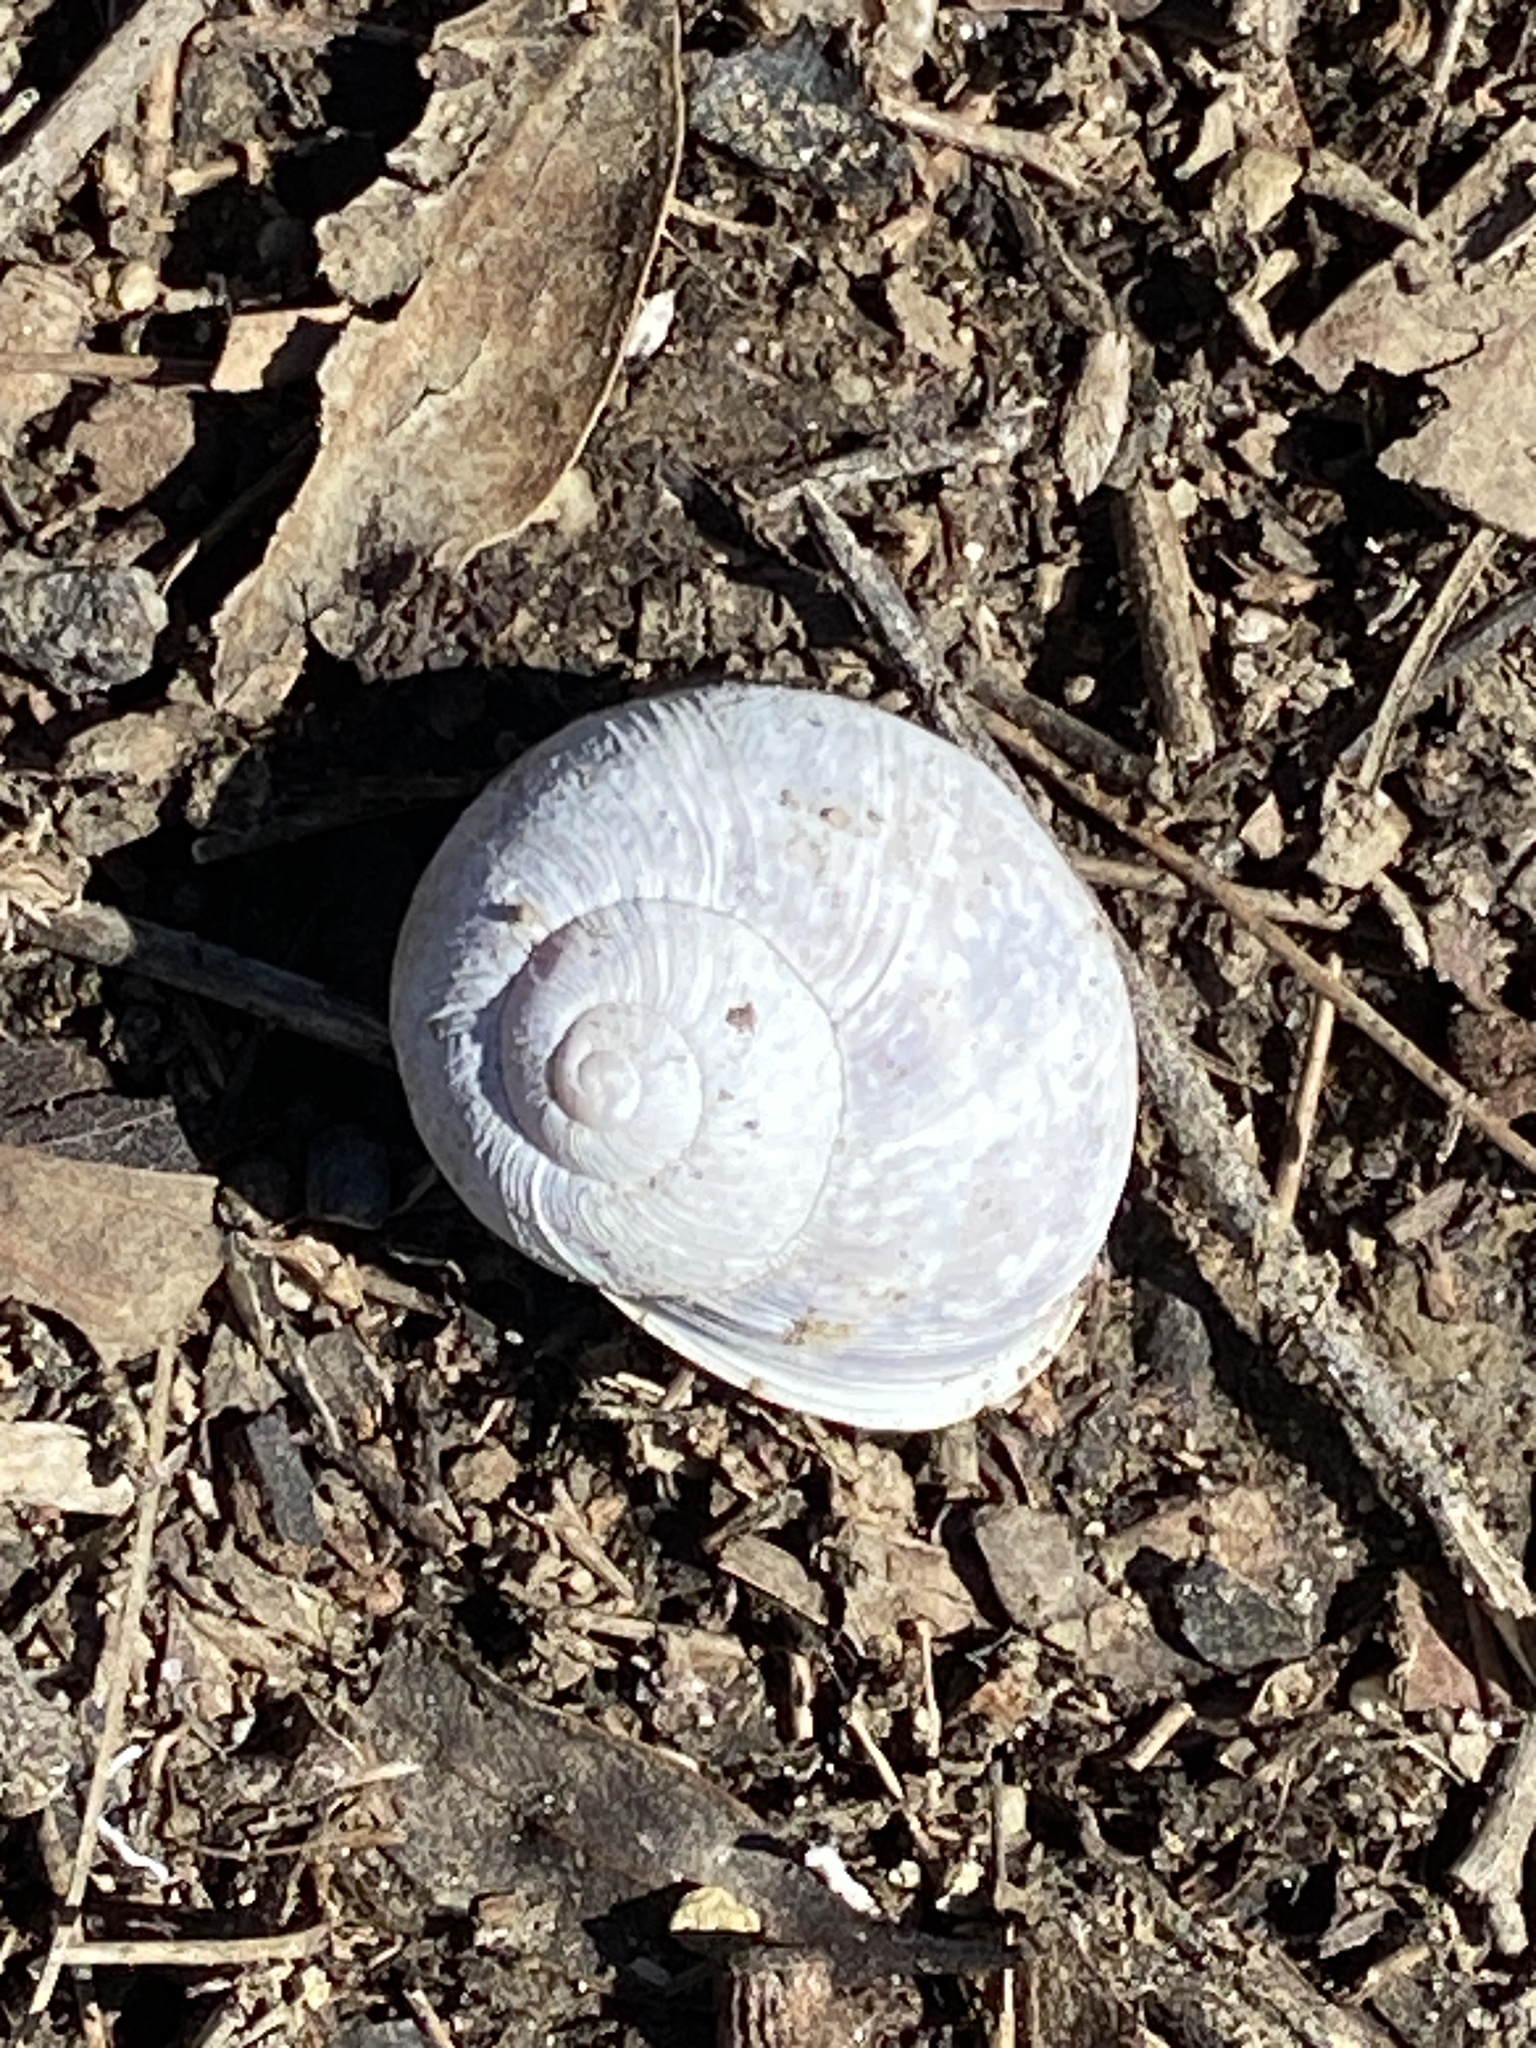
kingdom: Animalia
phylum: Mollusca
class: Gastropoda
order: Stylommatophora
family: Helicidae
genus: Cornu
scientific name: Cornu aspersum
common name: Brown garden snail
